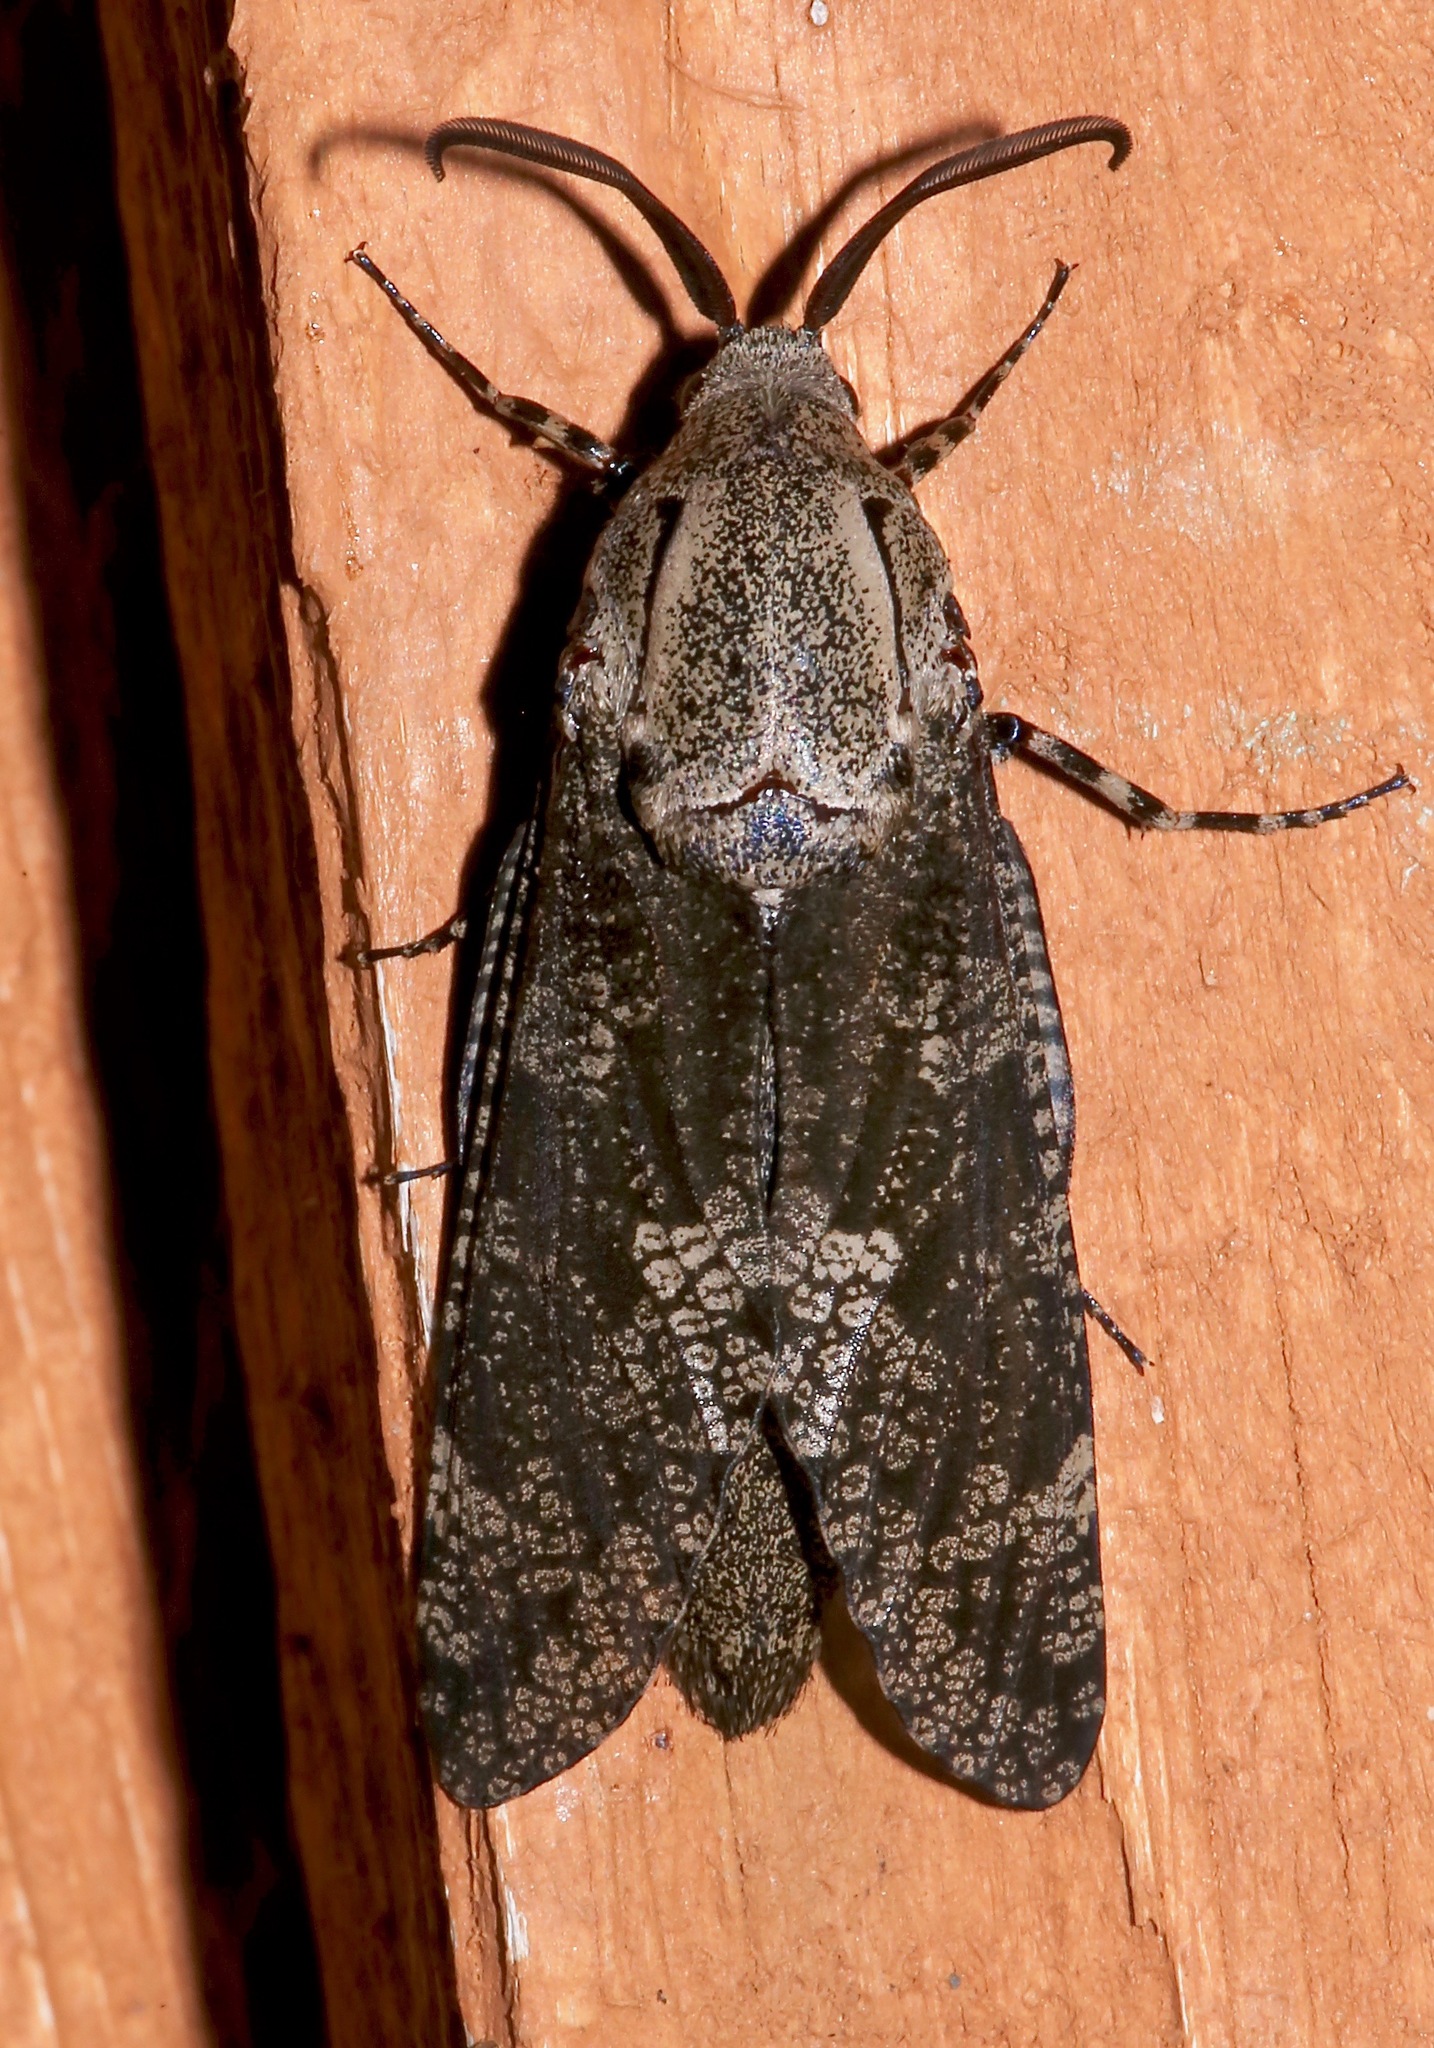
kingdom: Animalia
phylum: Arthropoda
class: Insecta
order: Lepidoptera
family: Cossidae
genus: Prionoxystus
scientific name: Prionoxystus robiniae
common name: Carpenterworm
